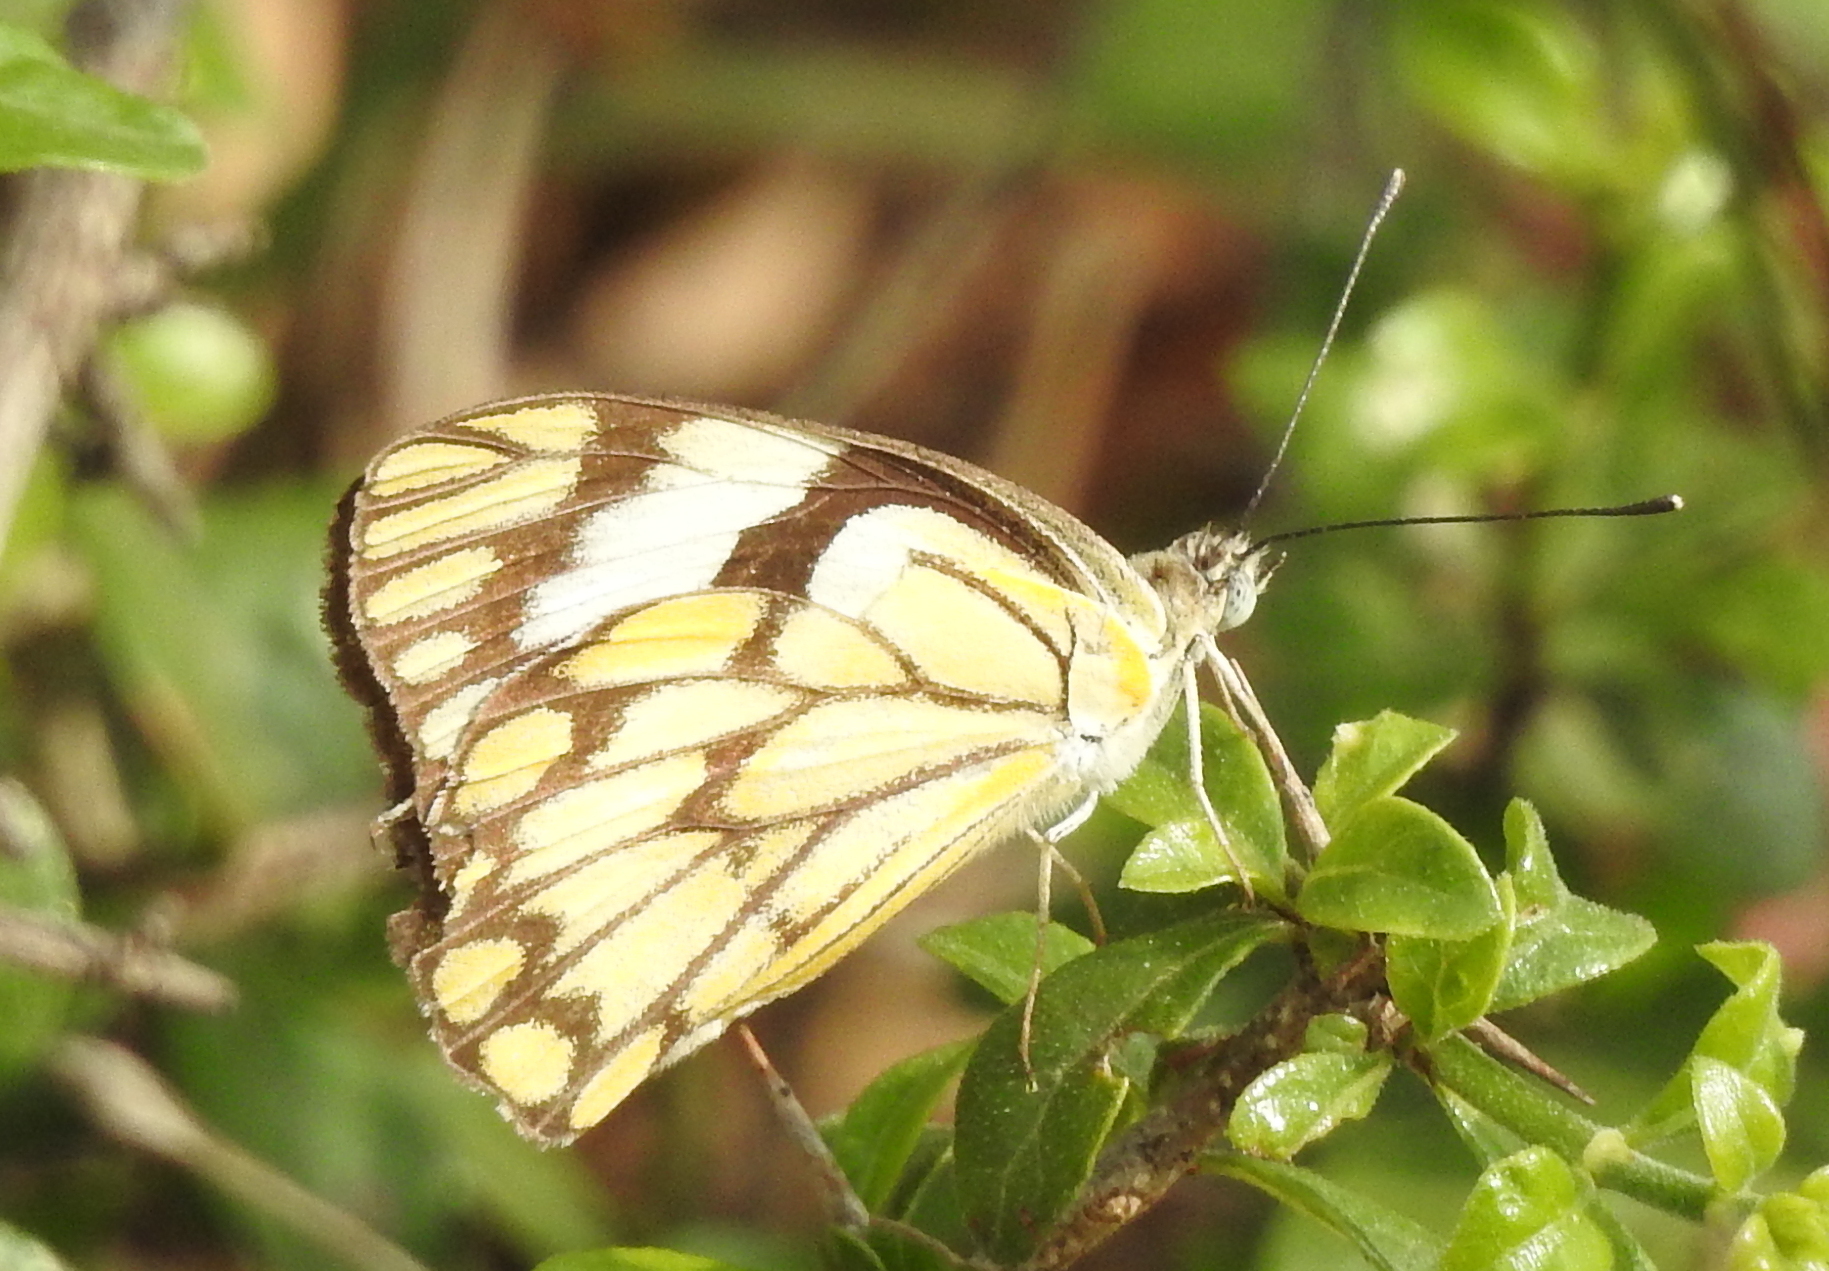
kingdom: Animalia
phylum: Arthropoda
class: Insecta
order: Lepidoptera
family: Pieridae
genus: Belenois
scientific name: Belenois aurota
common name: Brown-veined white
